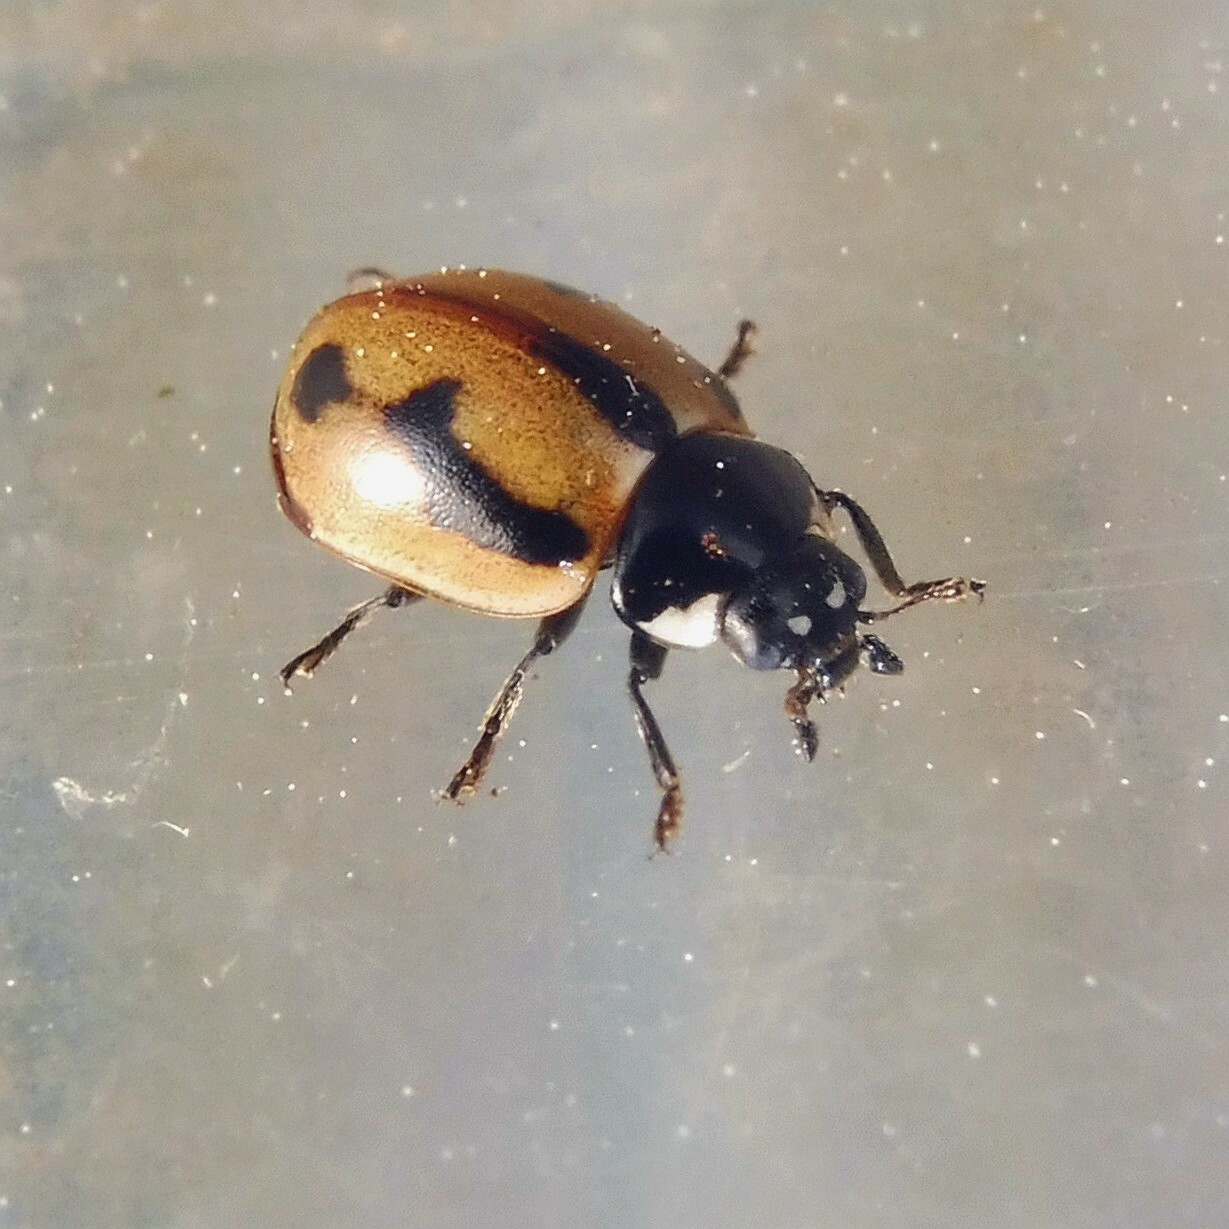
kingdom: Animalia
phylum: Arthropoda
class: Insecta
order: Coleoptera
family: Coccinellidae
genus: Coccinella
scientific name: Coccinella hieroglyphica
